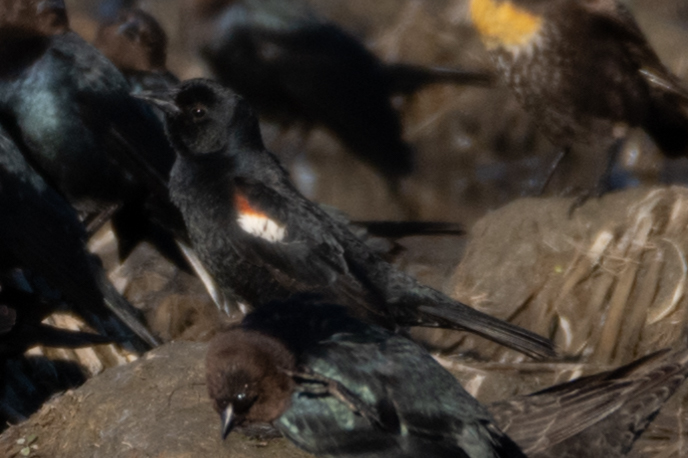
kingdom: Animalia
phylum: Chordata
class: Aves
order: Passeriformes
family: Icteridae
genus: Agelaius
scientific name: Agelaius tricolor
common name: Tricolored blackbird
